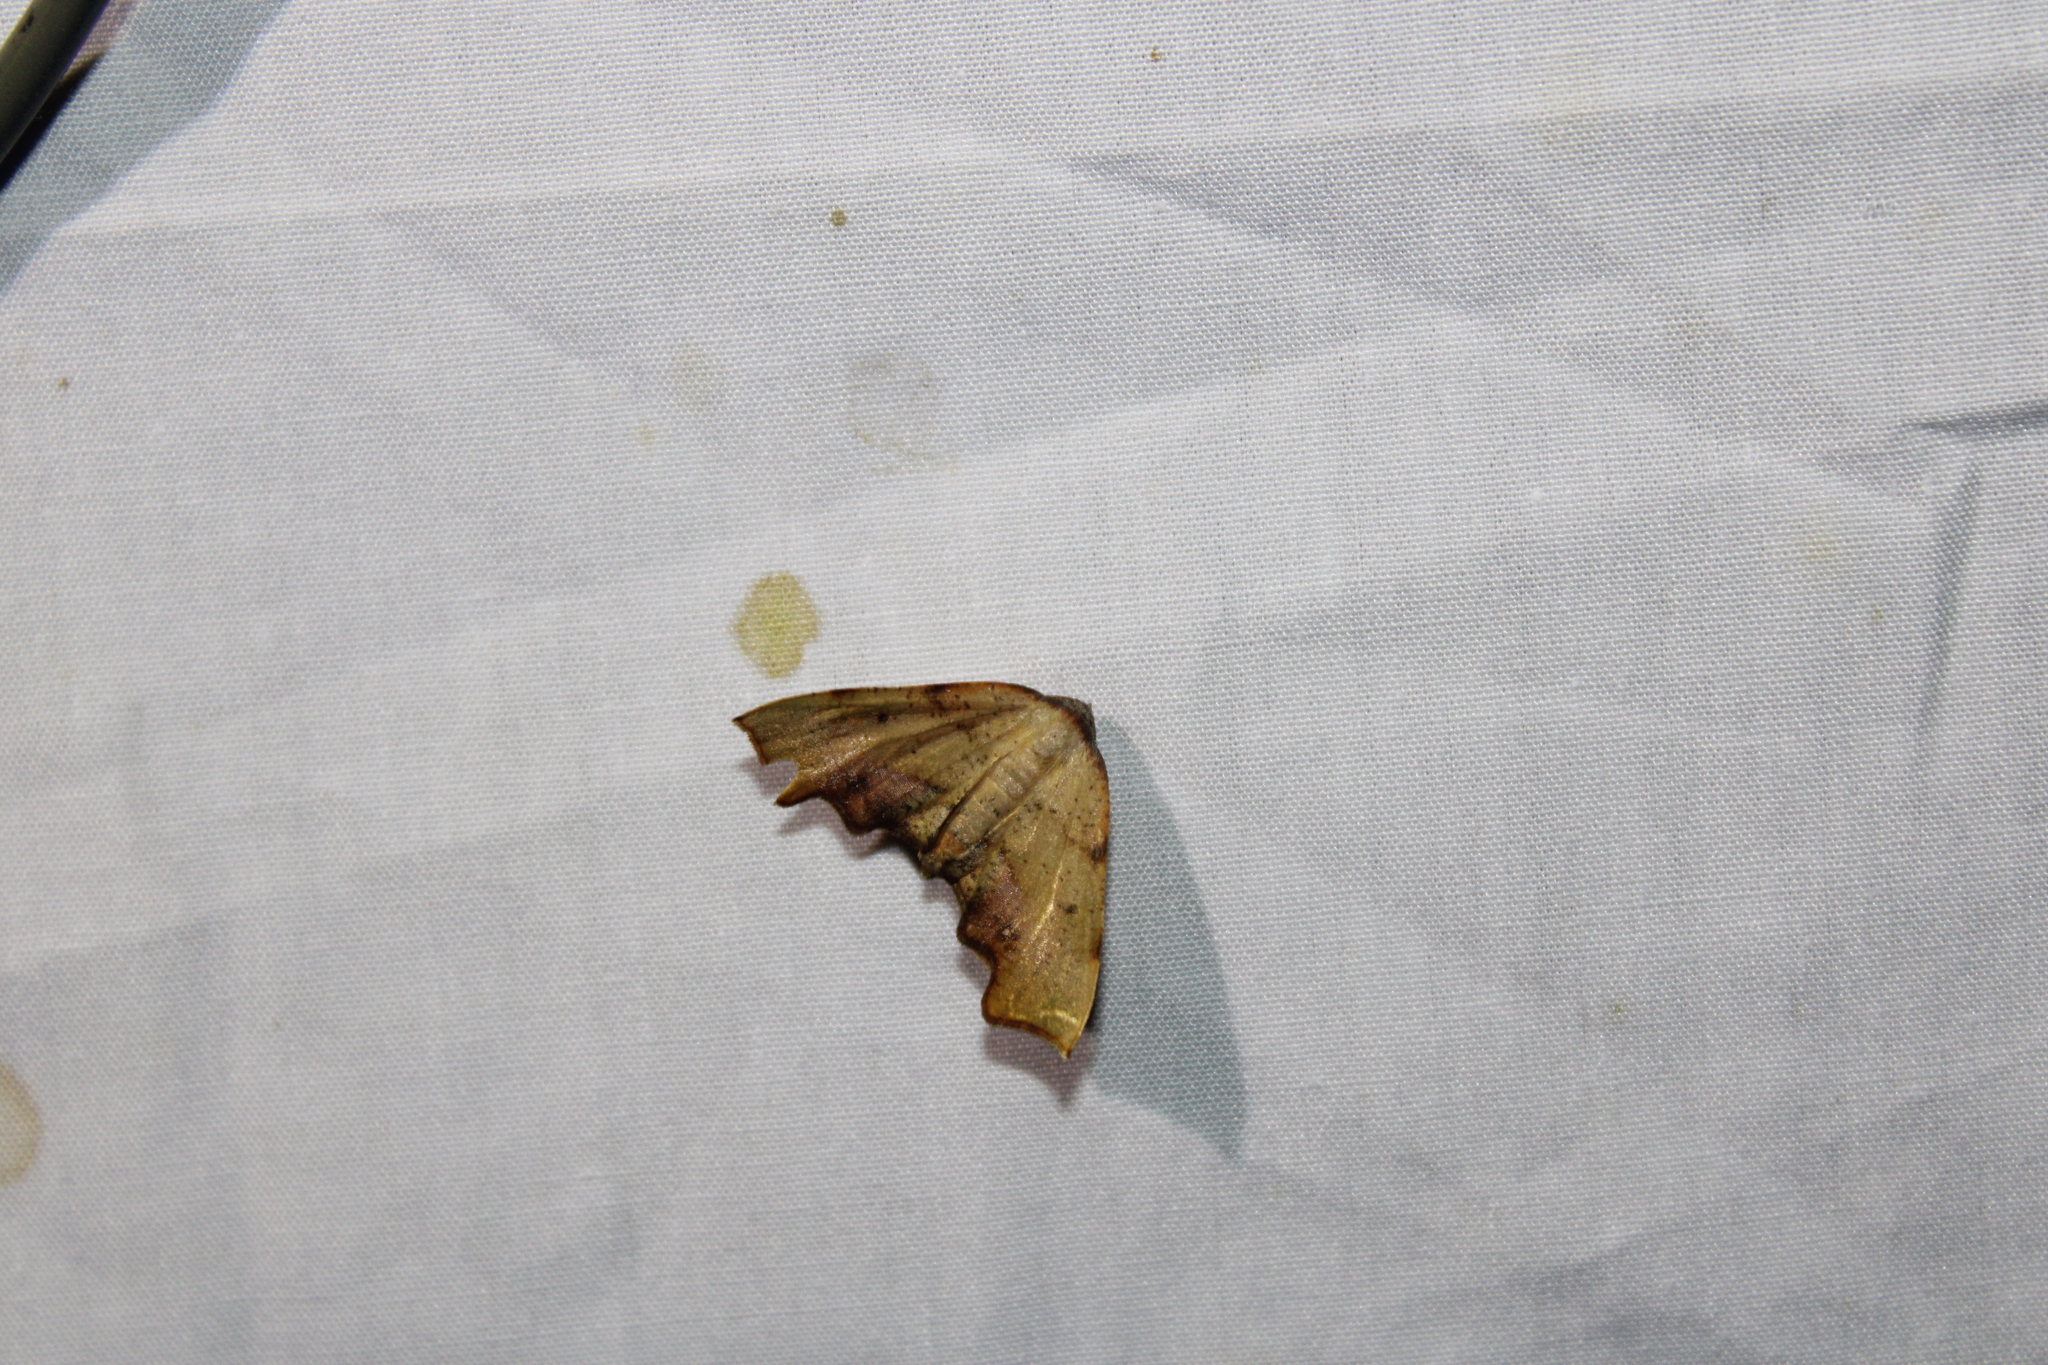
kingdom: Animalia
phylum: Arthropoda
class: Insecta
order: Lepidoptera
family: Geometridae
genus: Plagodis
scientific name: Plagodis fervidaria
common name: Fervid plagodis
